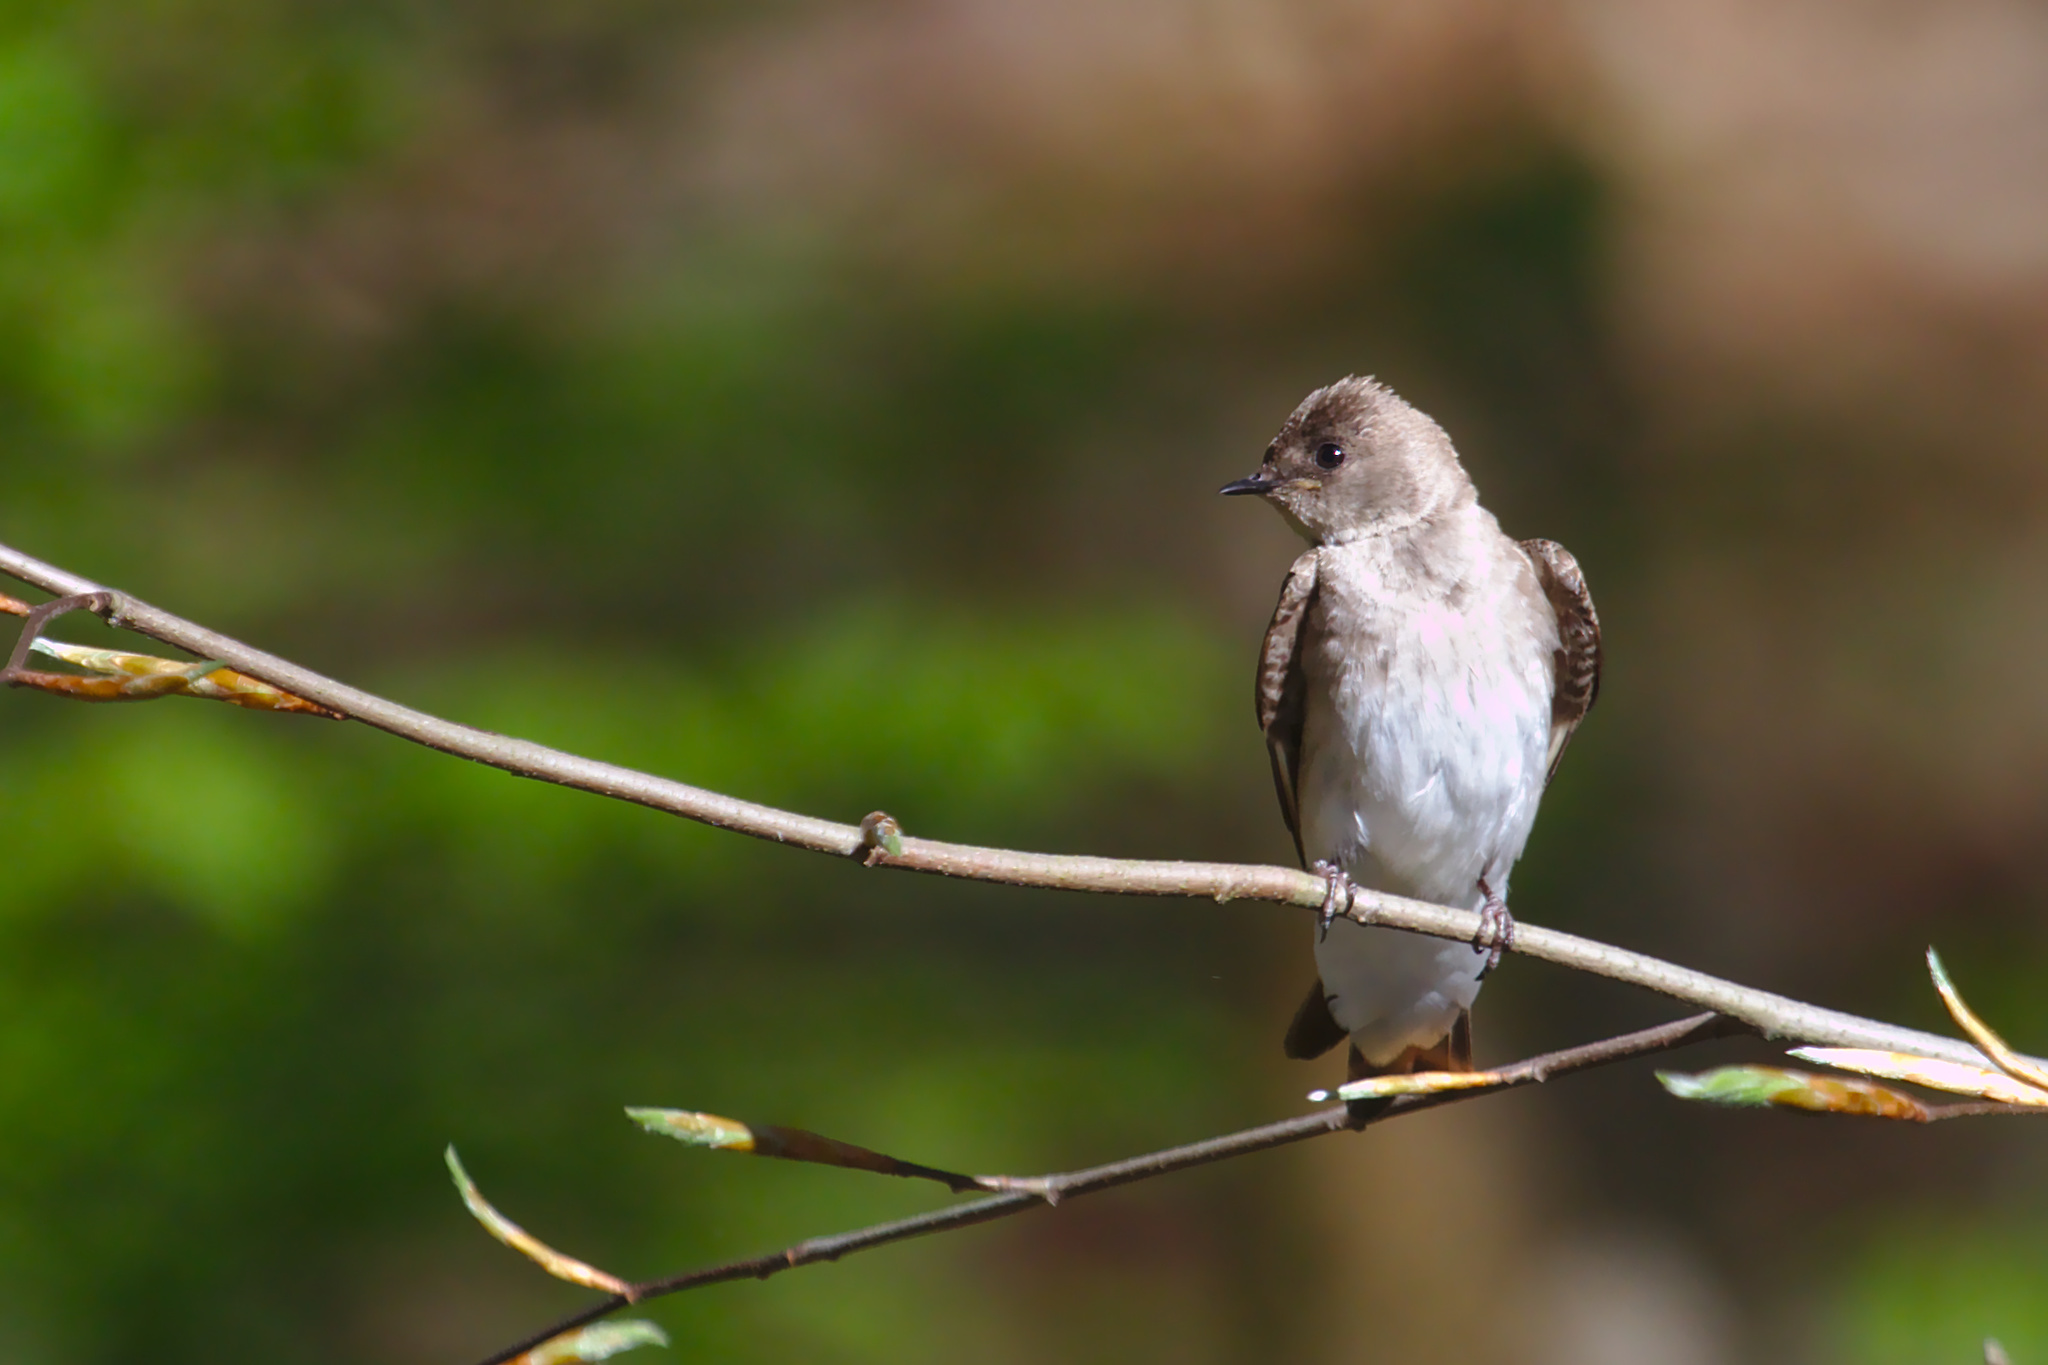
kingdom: Animalia
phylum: Chordata
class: Aves
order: Passeriformes
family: Hirundinidae
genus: Stelgidopteryx
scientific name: Stelgidopteryx serripennis
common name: Northern rough-winged swallow
